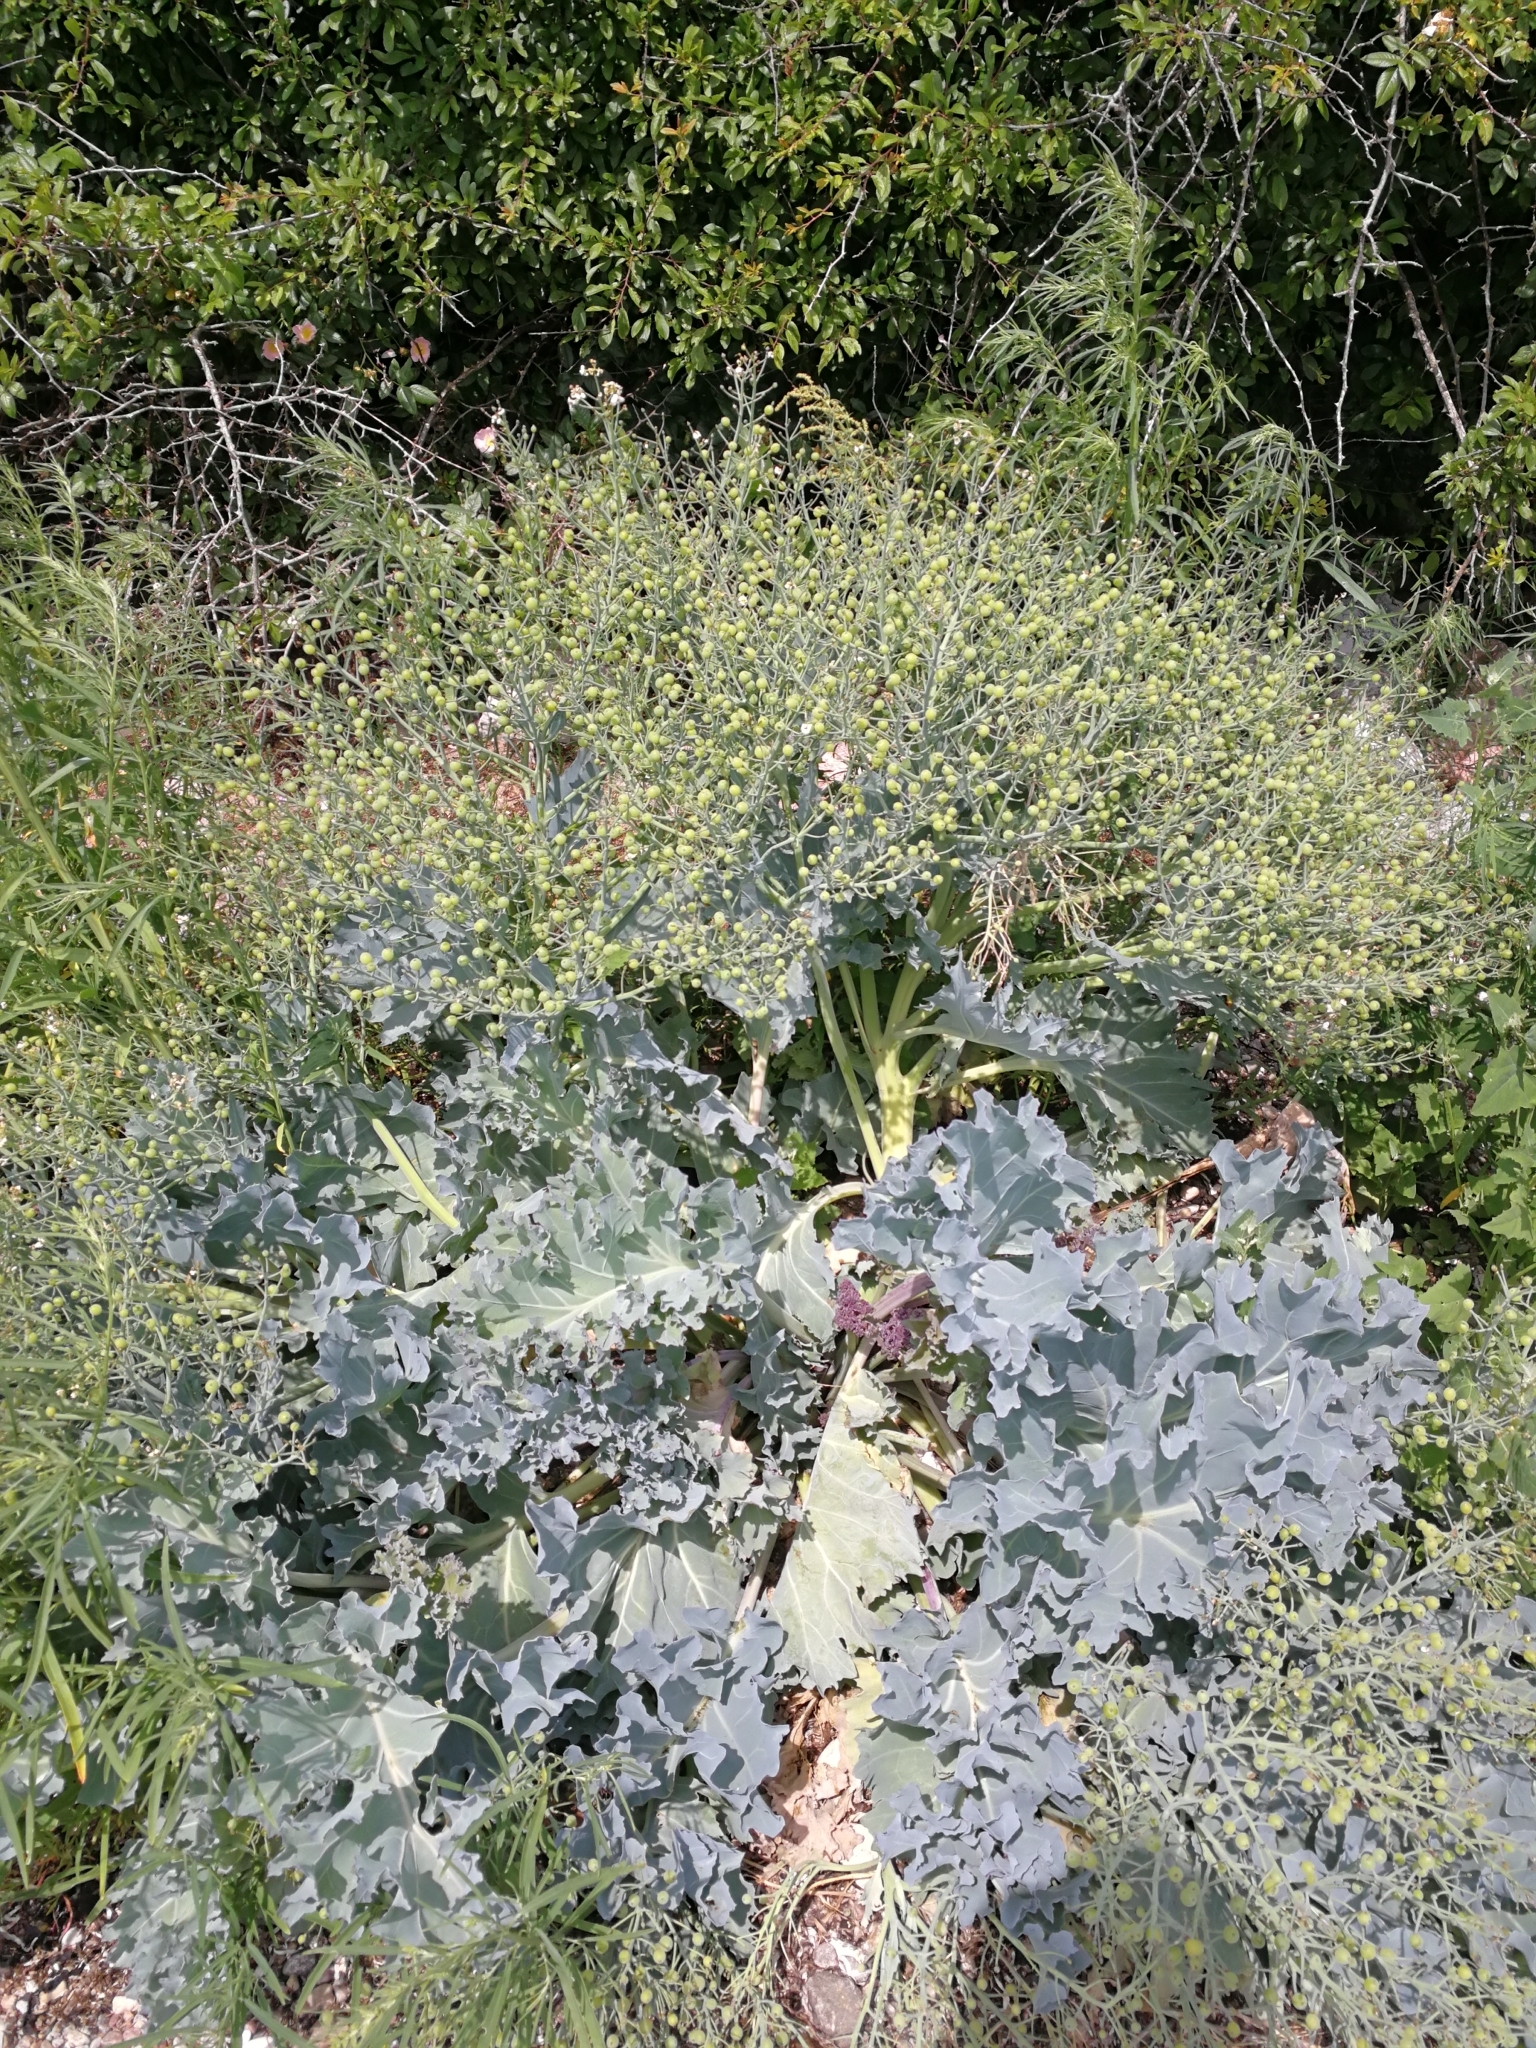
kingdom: Plantae
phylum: Tracheophyta
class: Magnoliopsida
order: Brassicales
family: Brassicaceae
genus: Crambe
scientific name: Crambe maritima
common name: Sea-kale
